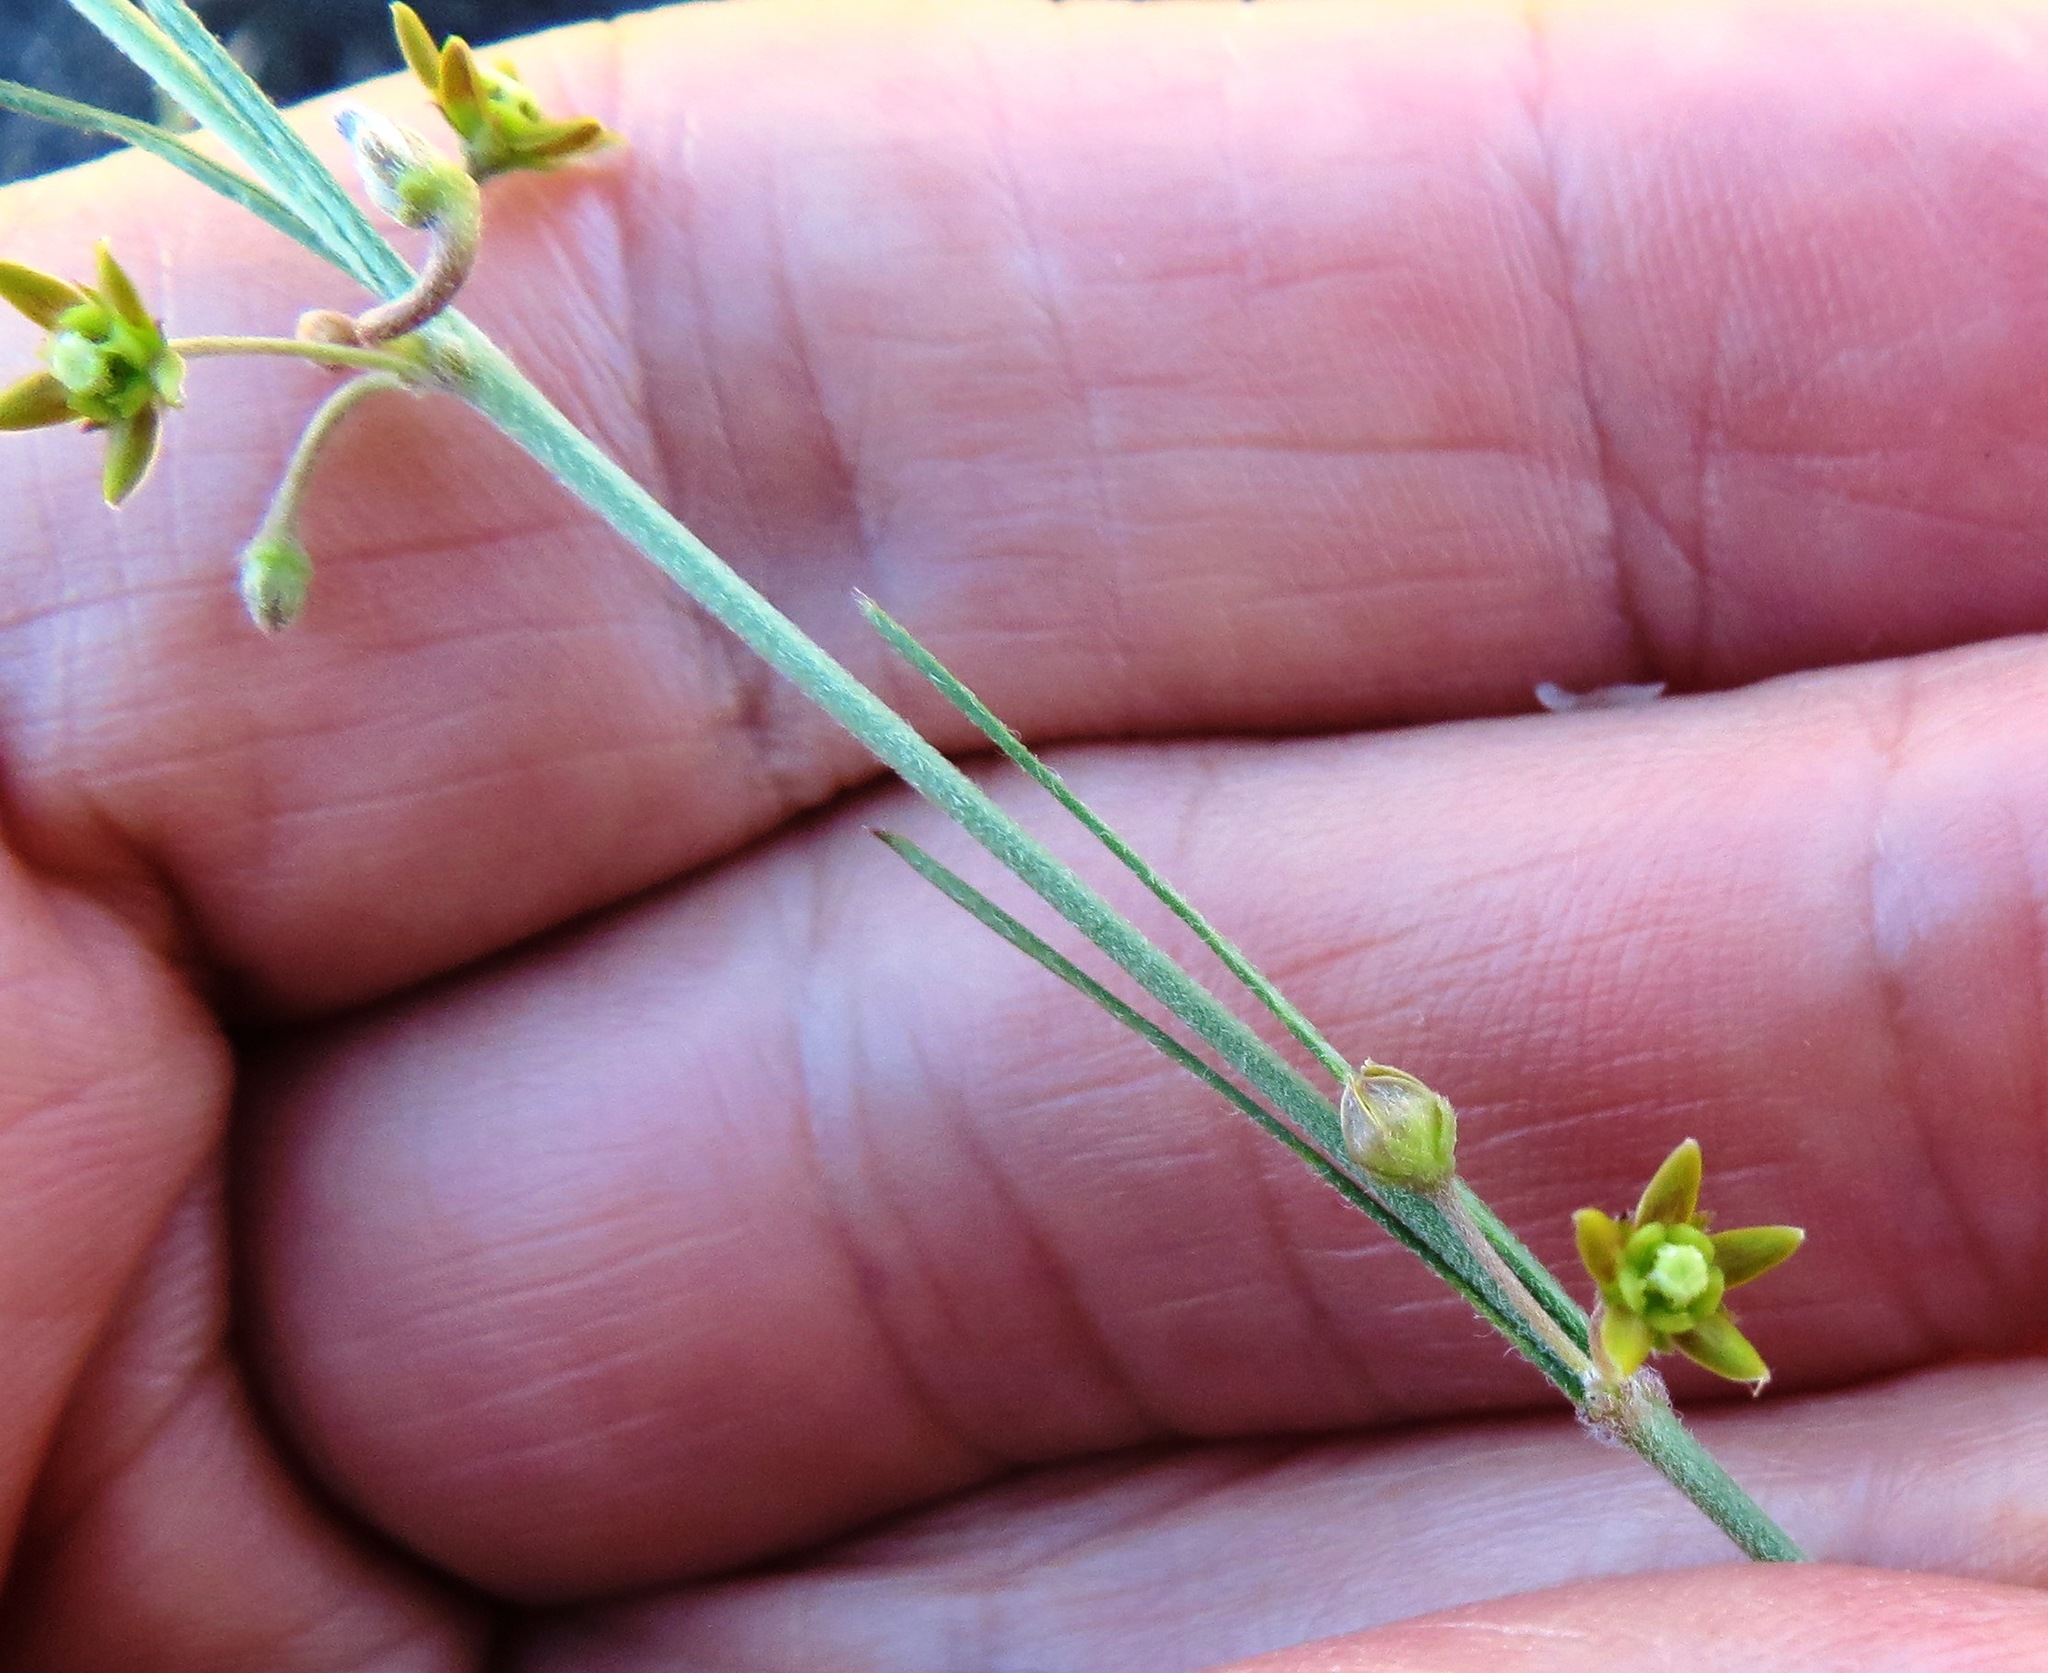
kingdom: Plantae
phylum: Tracheophyta
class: Magnoliopsida
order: Gentianales
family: Apocynaceae
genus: Aspidoglossum
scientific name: Aspidoglossum gracile
